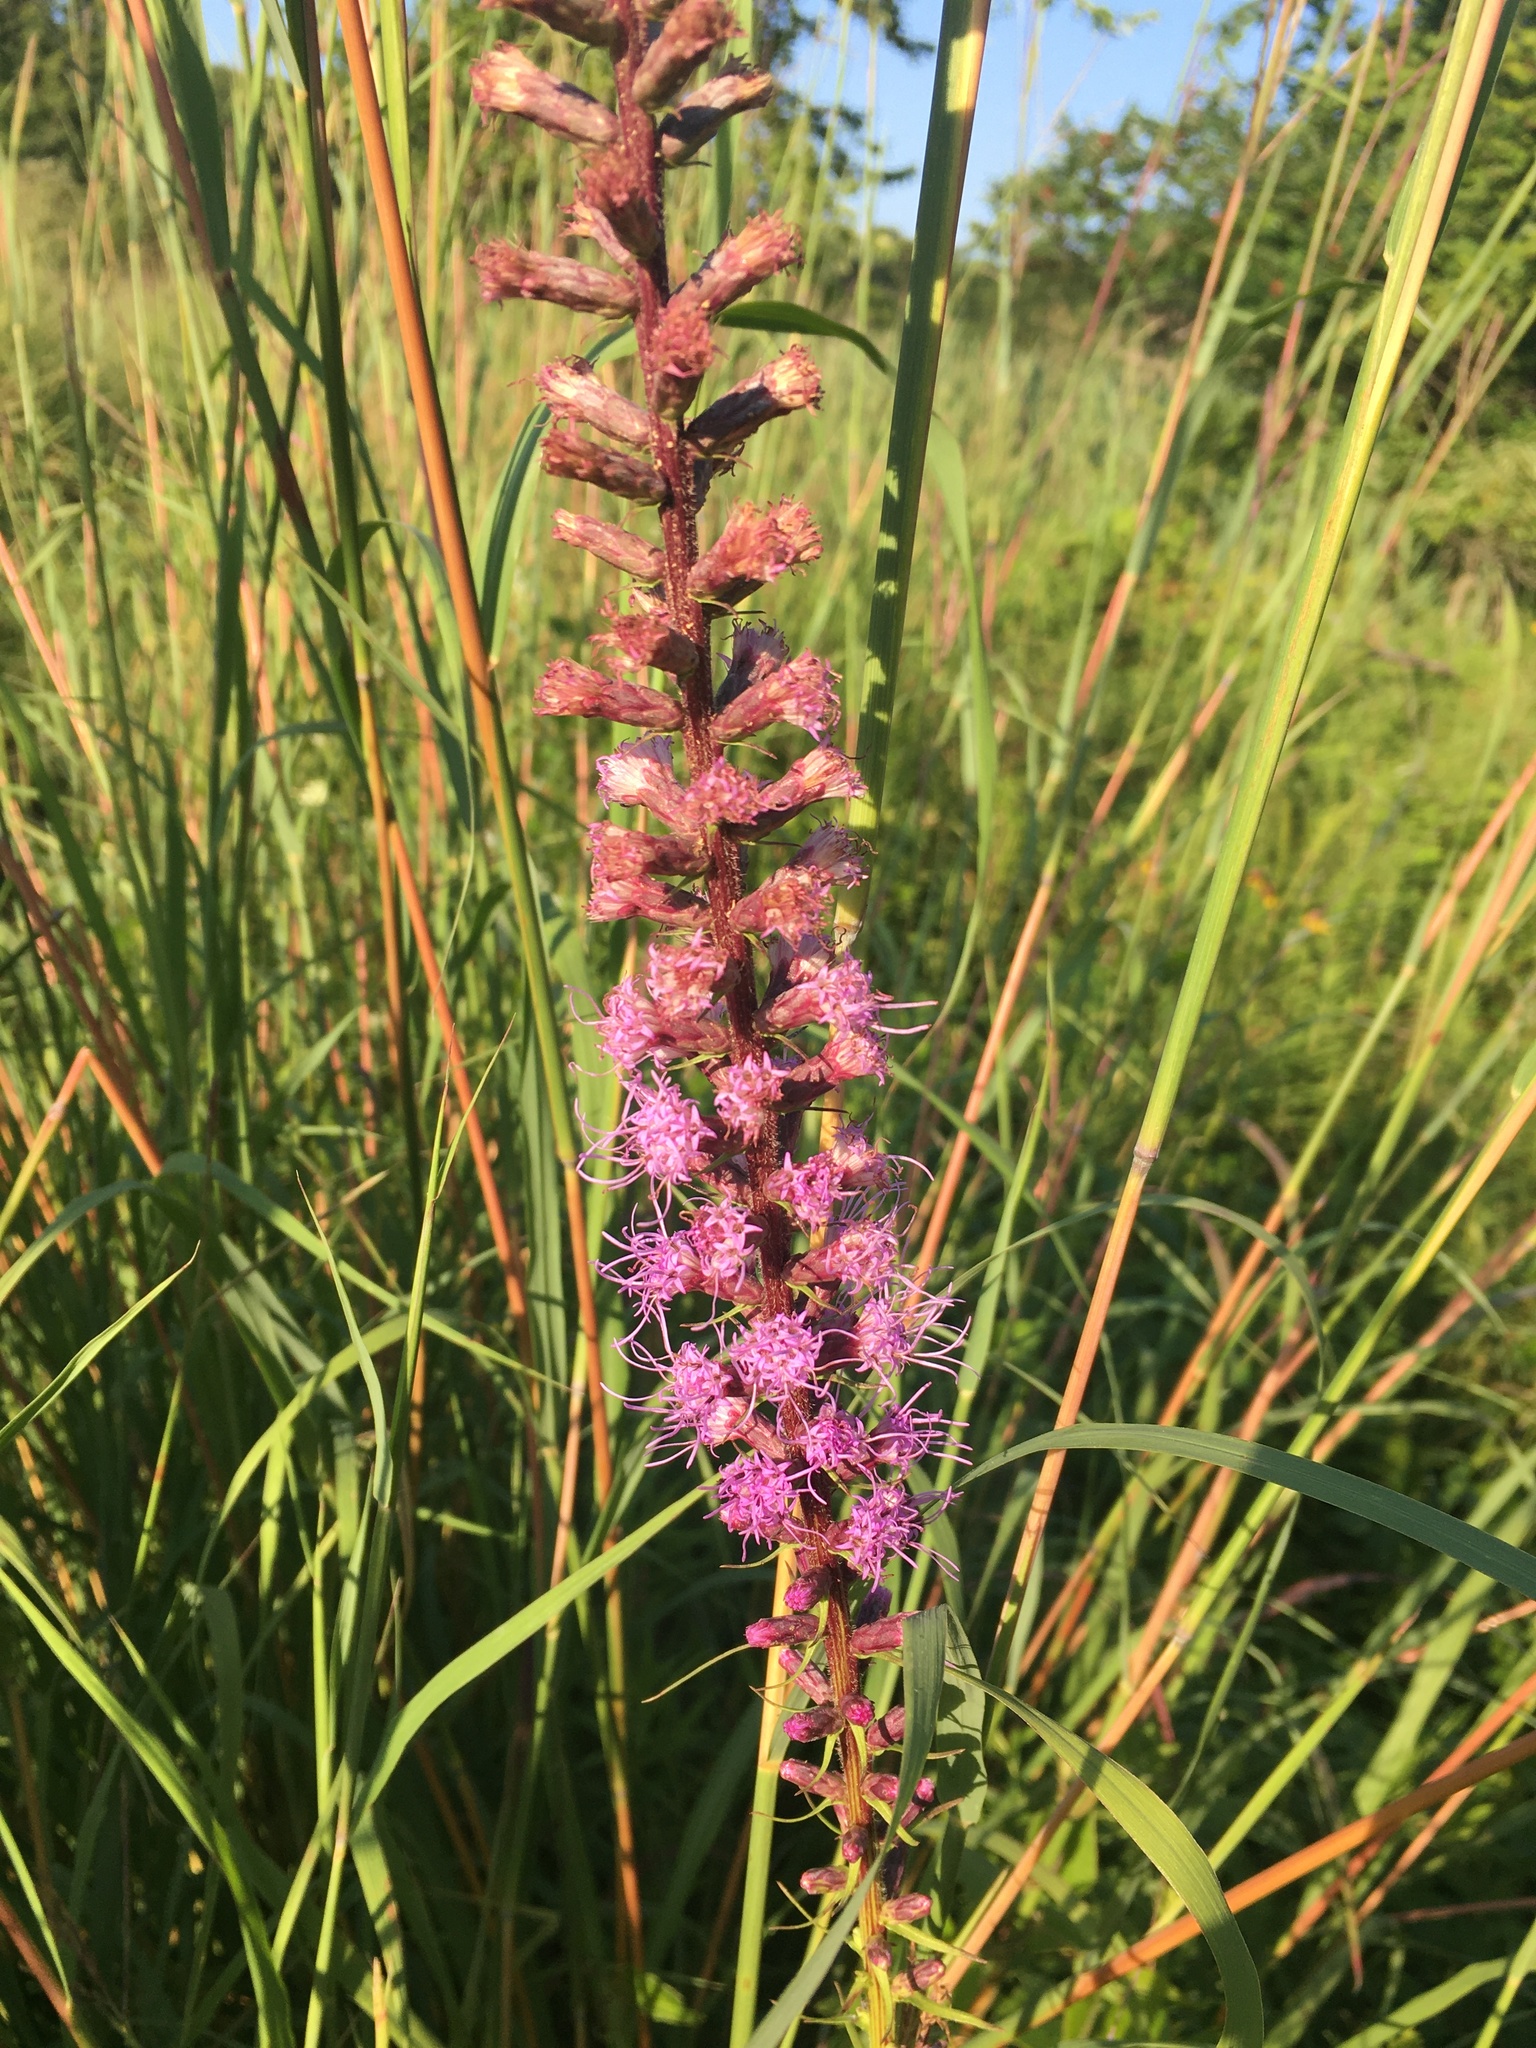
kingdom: Plantae
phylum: Tracheophyta
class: Magnoliopsida
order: Asterales
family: Asteraceae
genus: Liatris
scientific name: Liatris spicata
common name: Florist gayfeather
